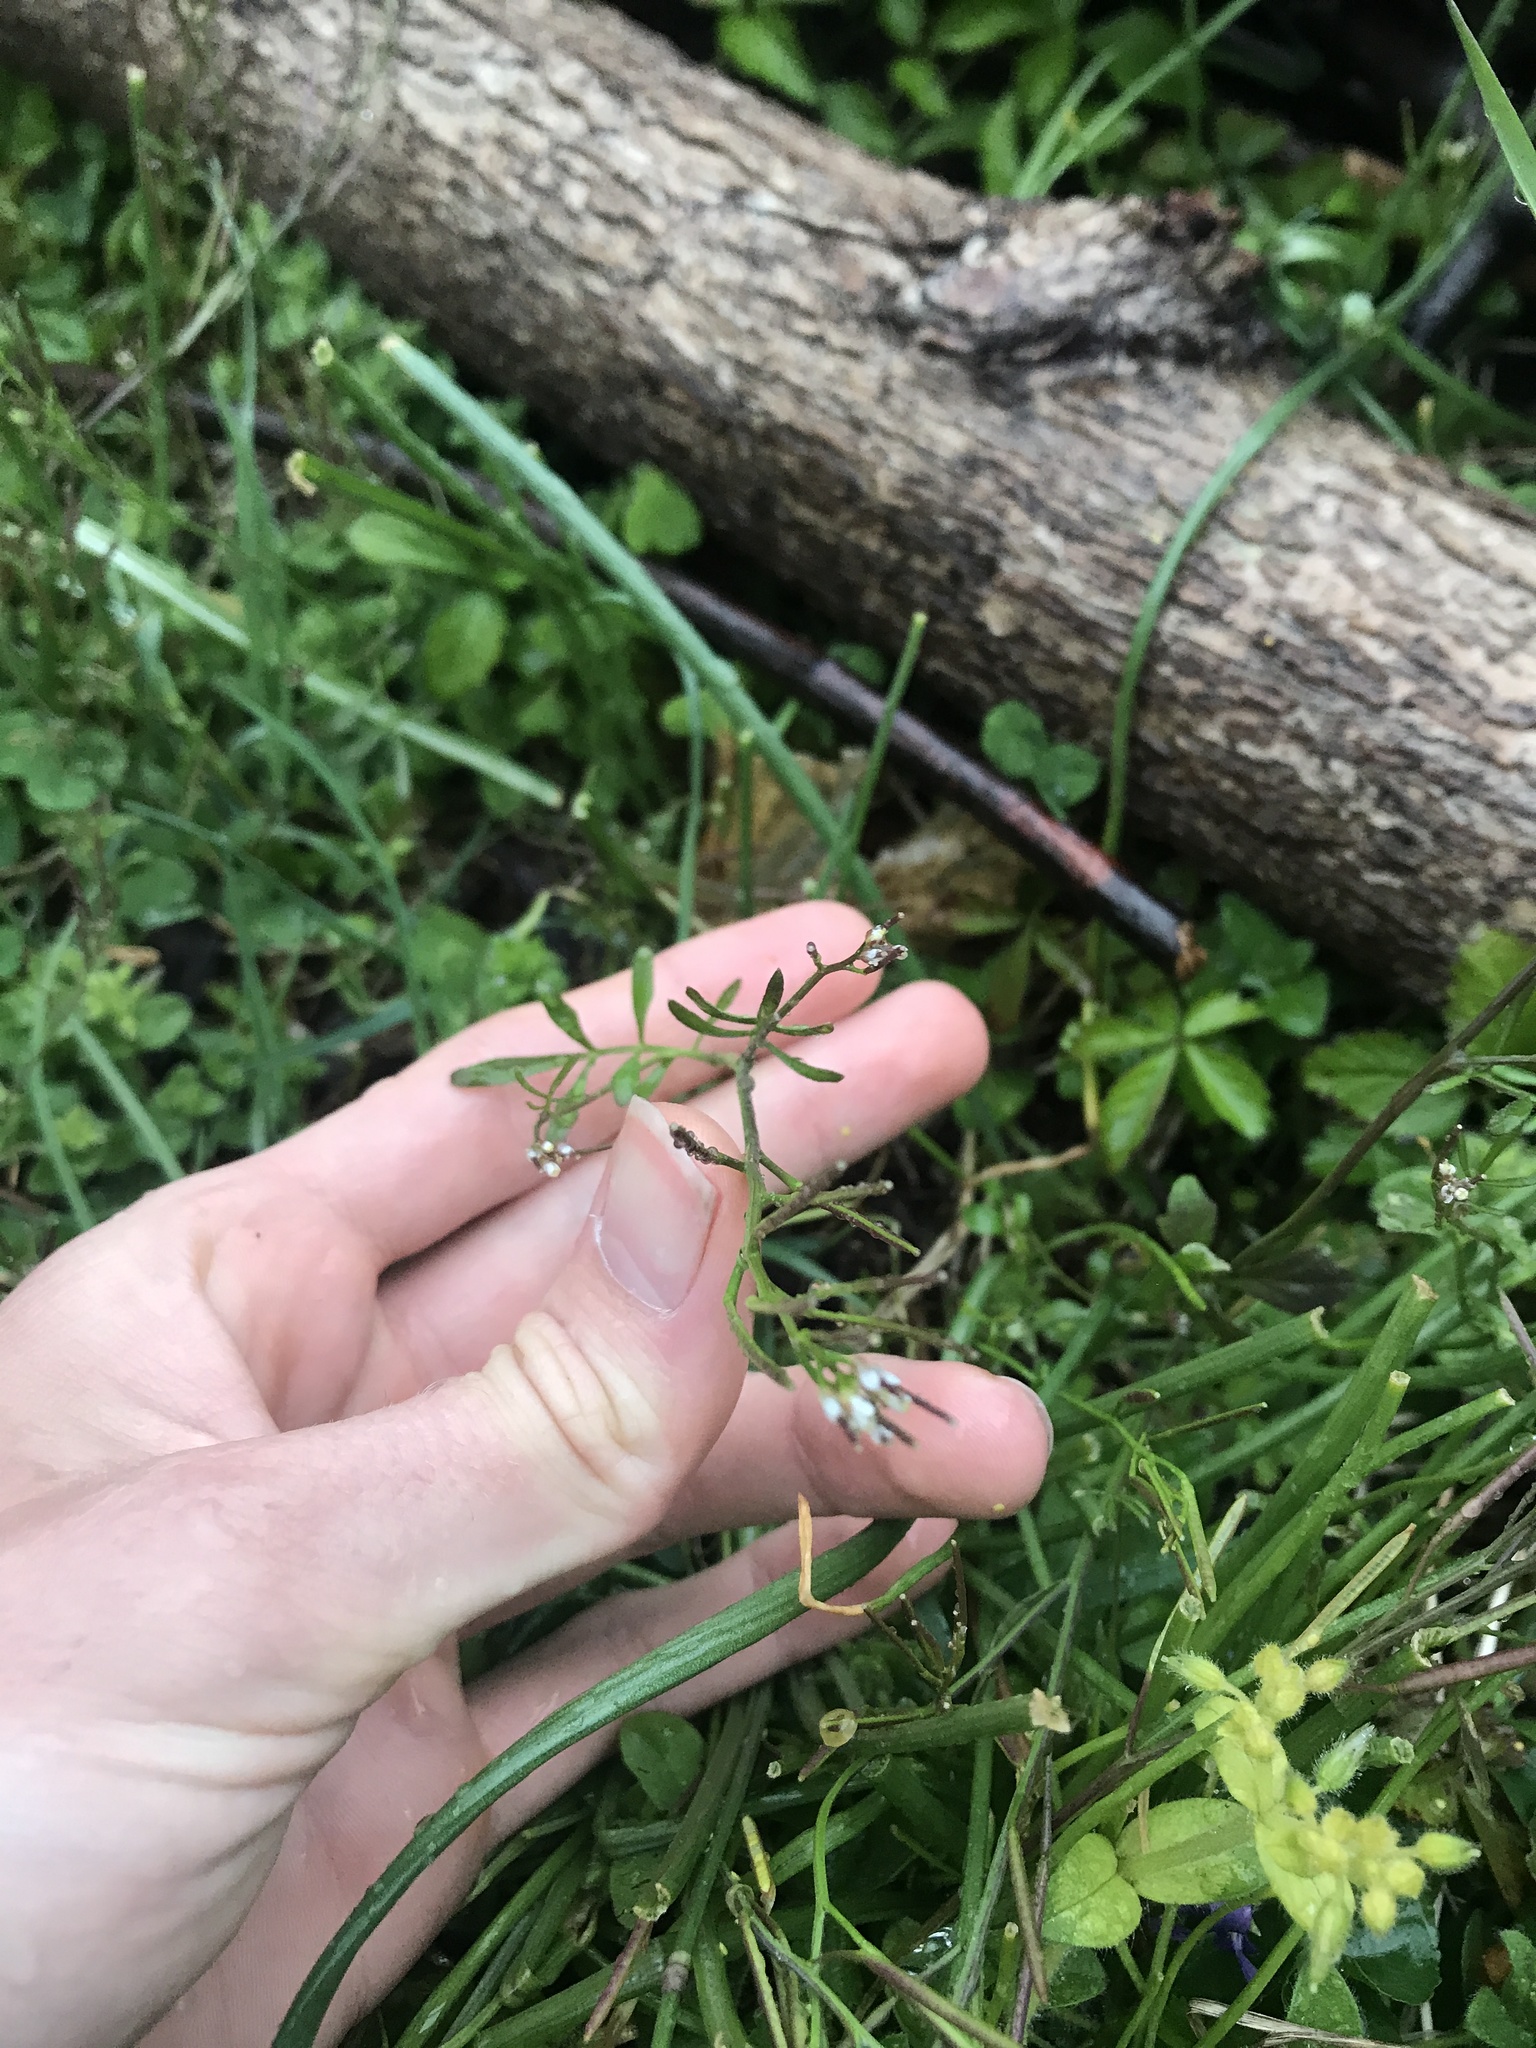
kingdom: Plantae
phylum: Tracheophyta
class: Magnoliopsida
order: Brassicales
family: Brassicaceae
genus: Cardamine
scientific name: Cardamine hirsuta
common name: Hairy bittercress
